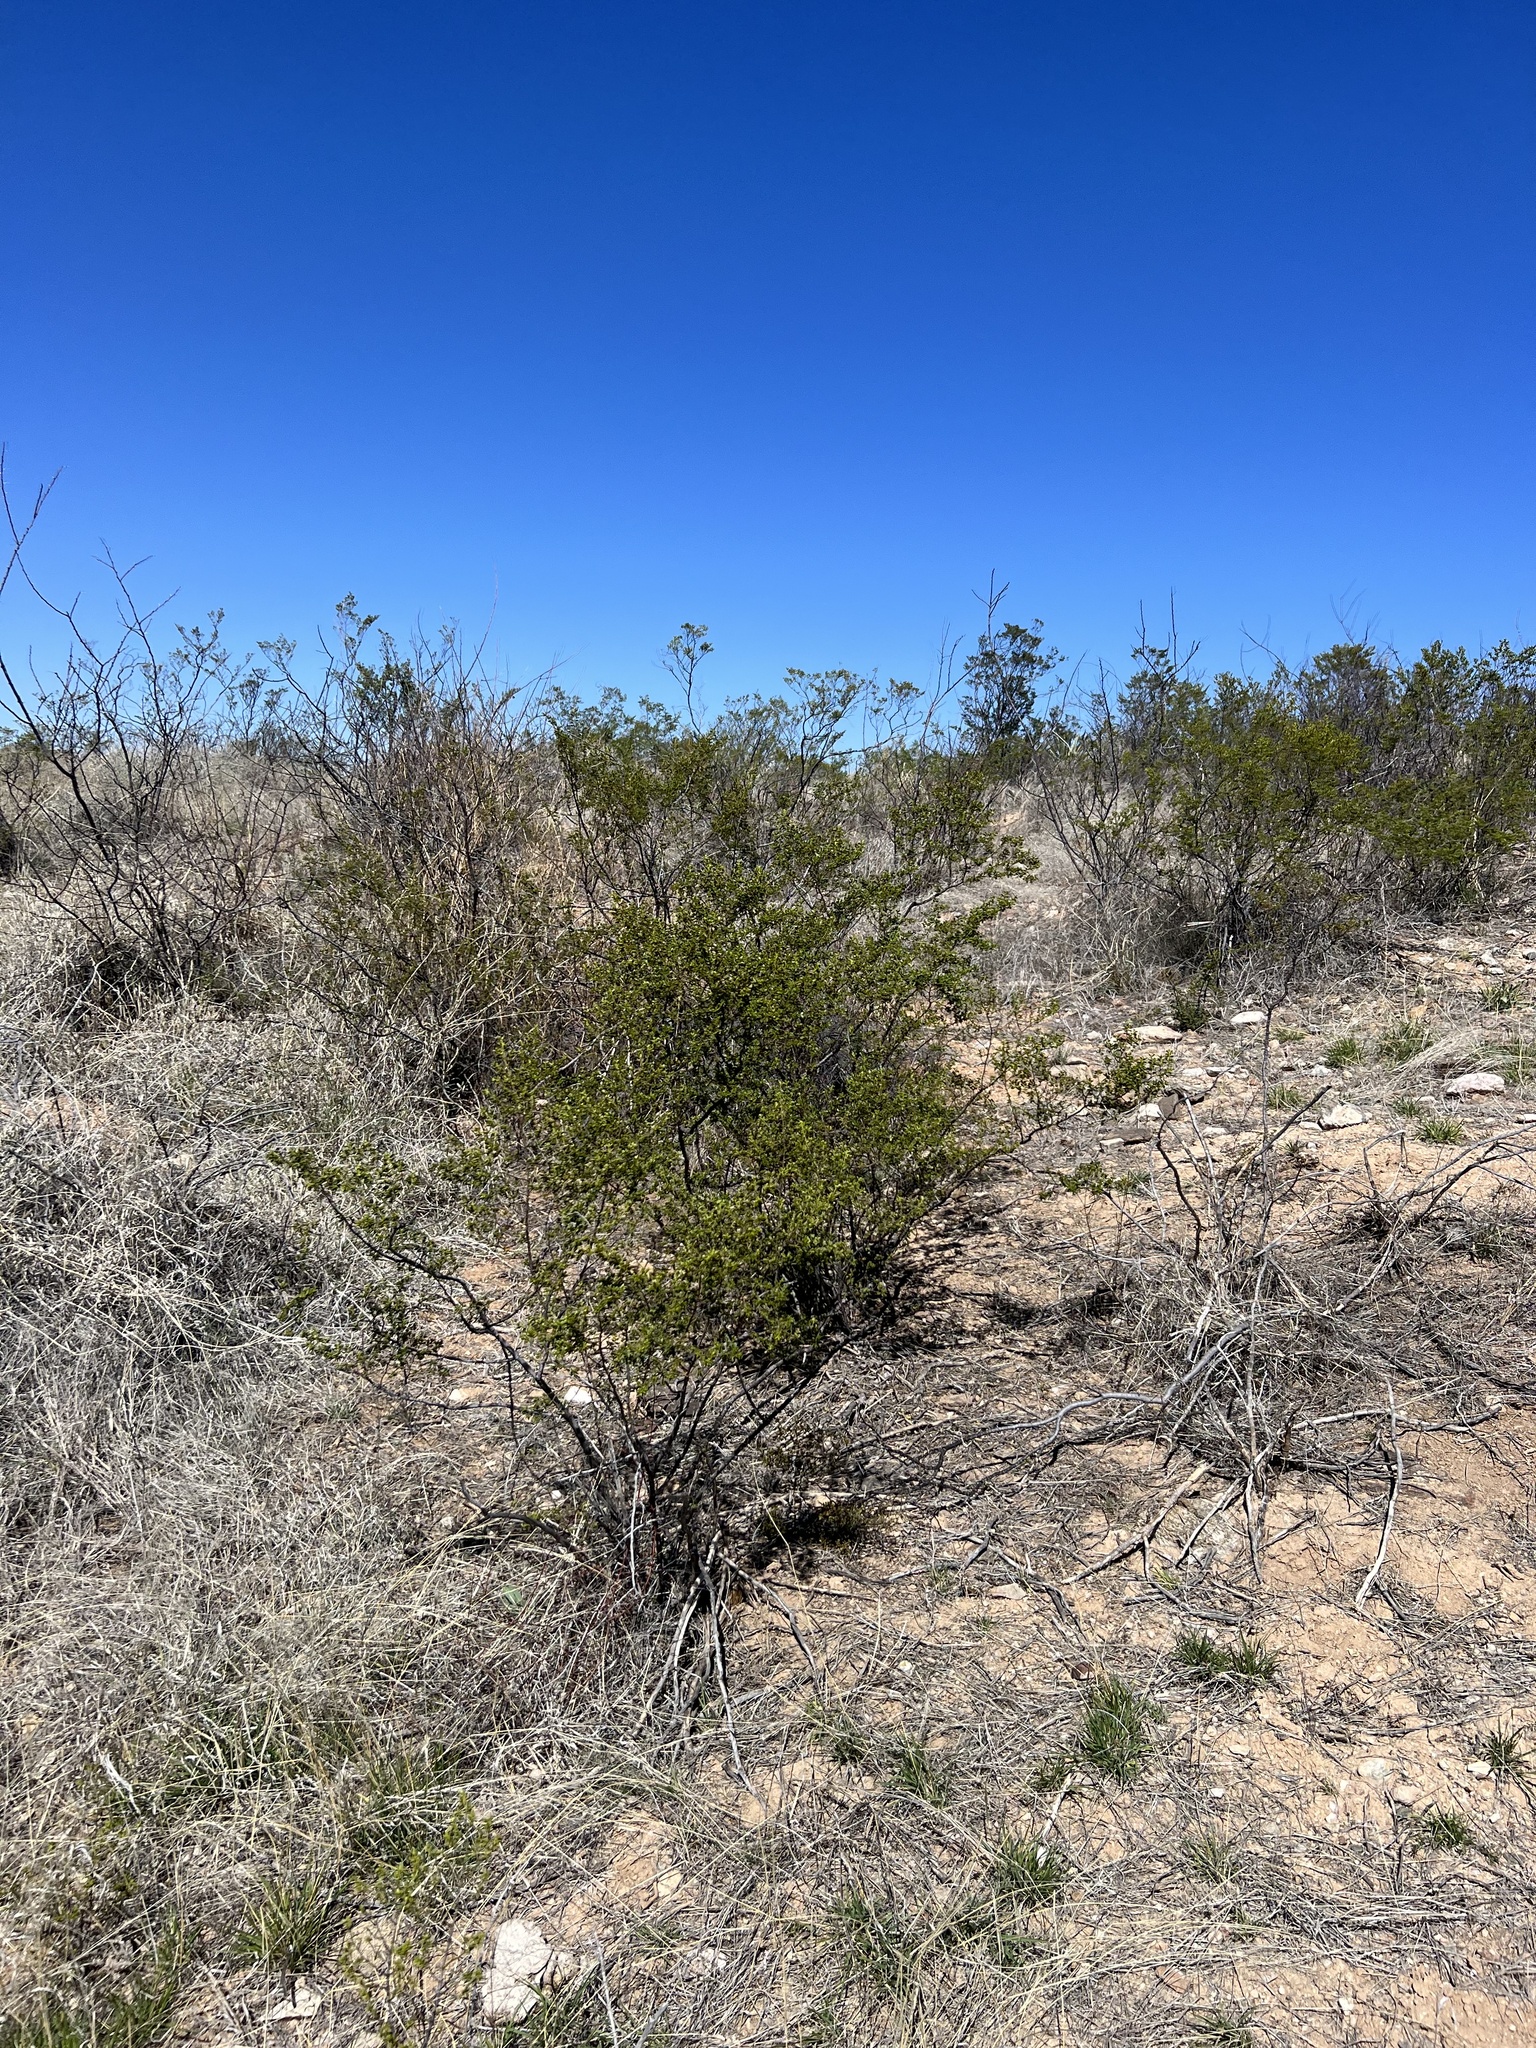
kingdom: Plantae
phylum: Tracheophyta
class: Magnoliopsida
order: Zygophyllales
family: Zygophyllaceae
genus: Larrea
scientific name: Larrea tridentata
